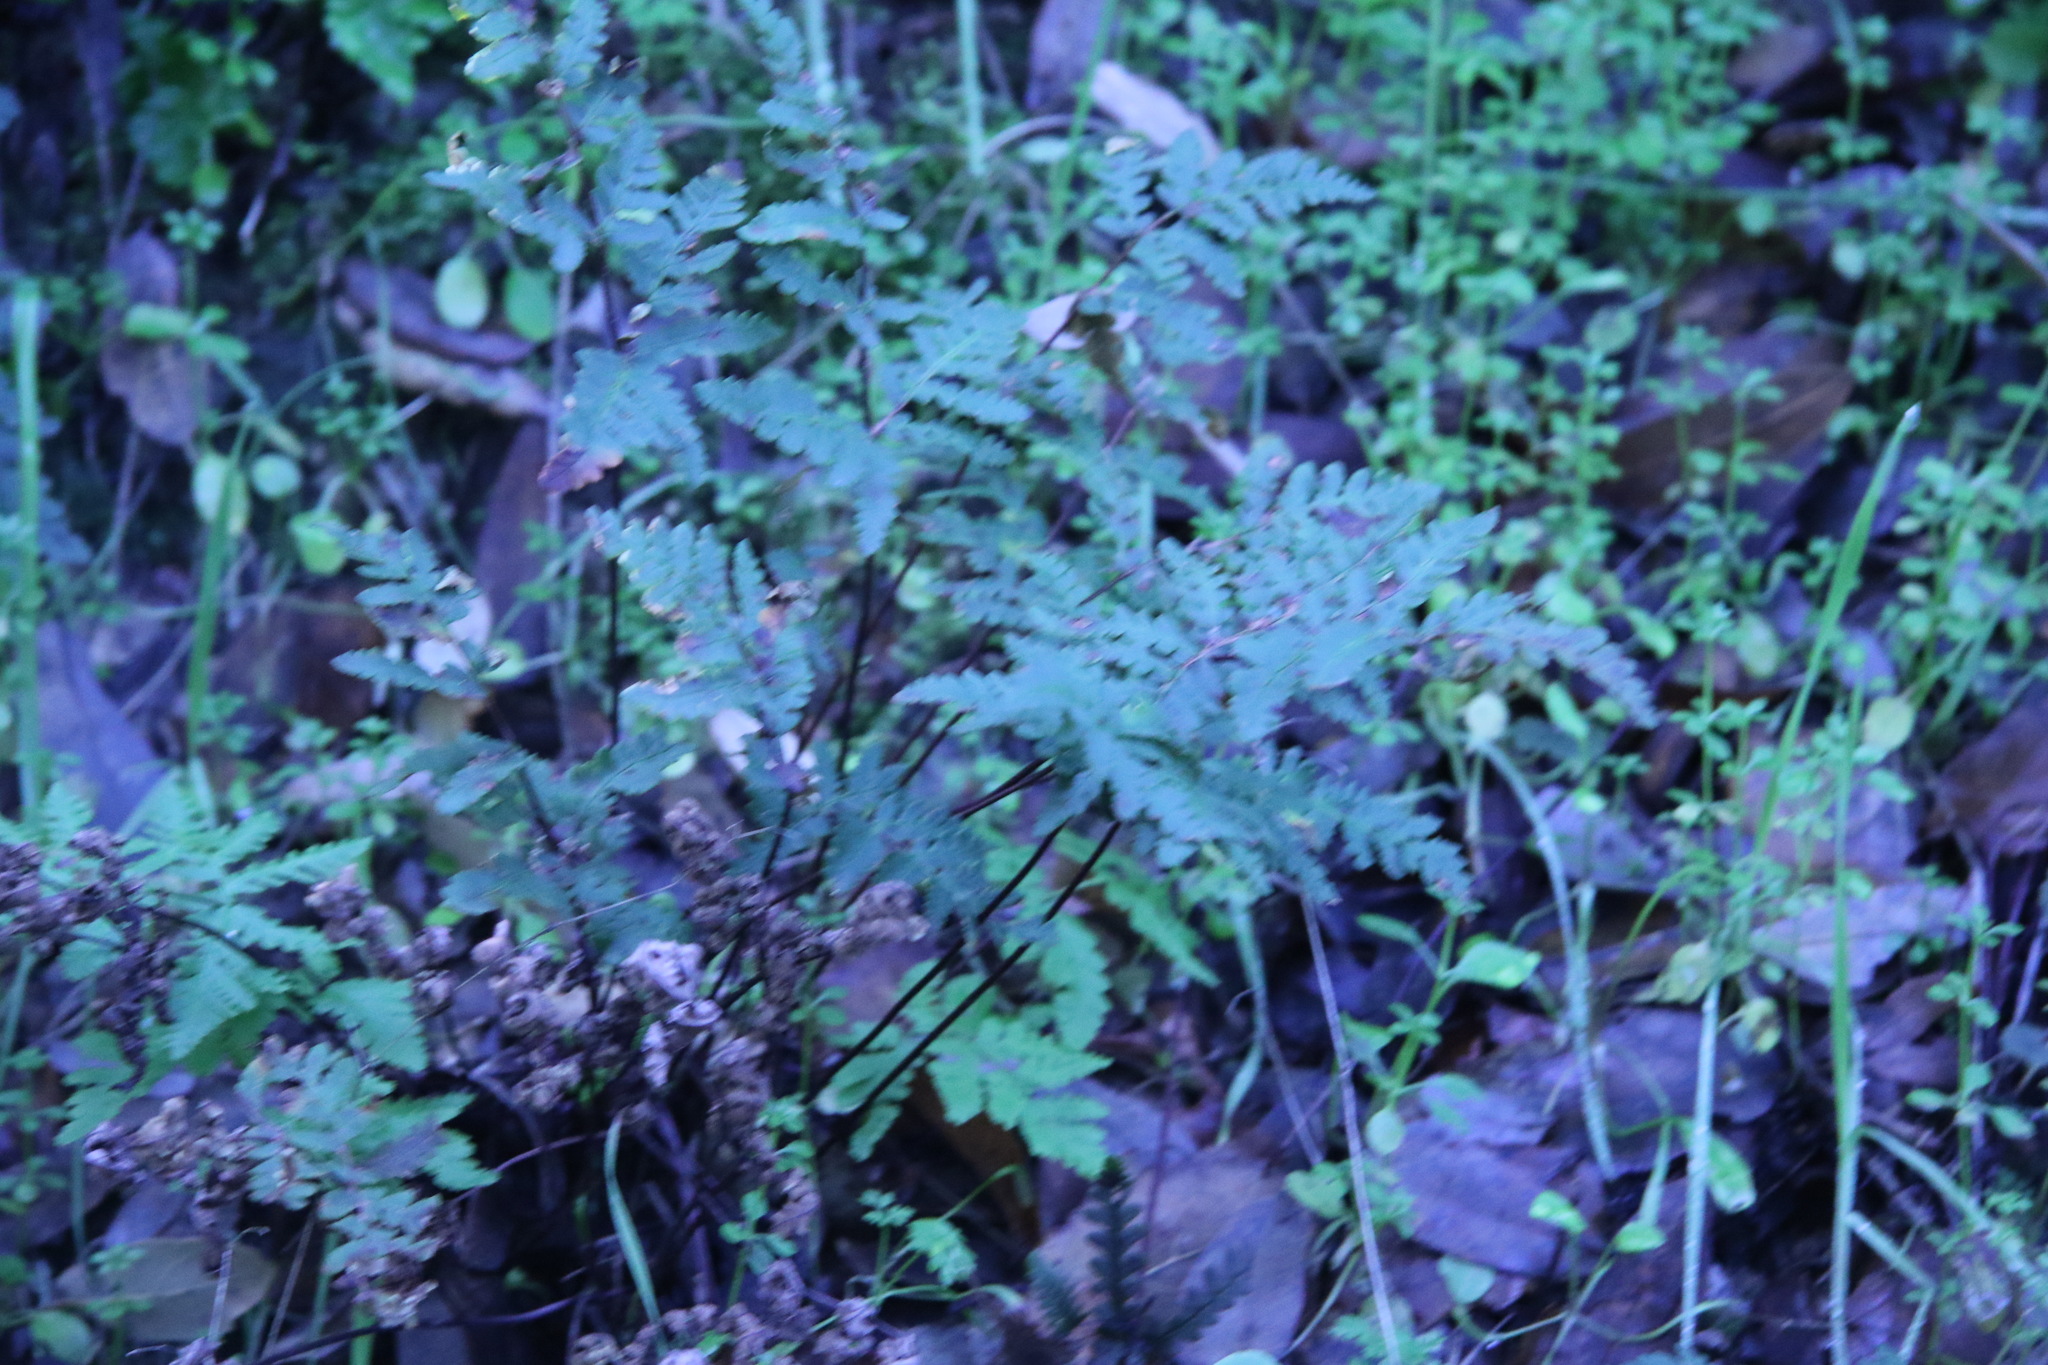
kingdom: Plantae
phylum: Tracheophyta
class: Polypodiopsida
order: Polypodiales
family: Pteridaceae
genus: Pentagramma
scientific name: Pentagramma triangularis
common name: Gold fern
